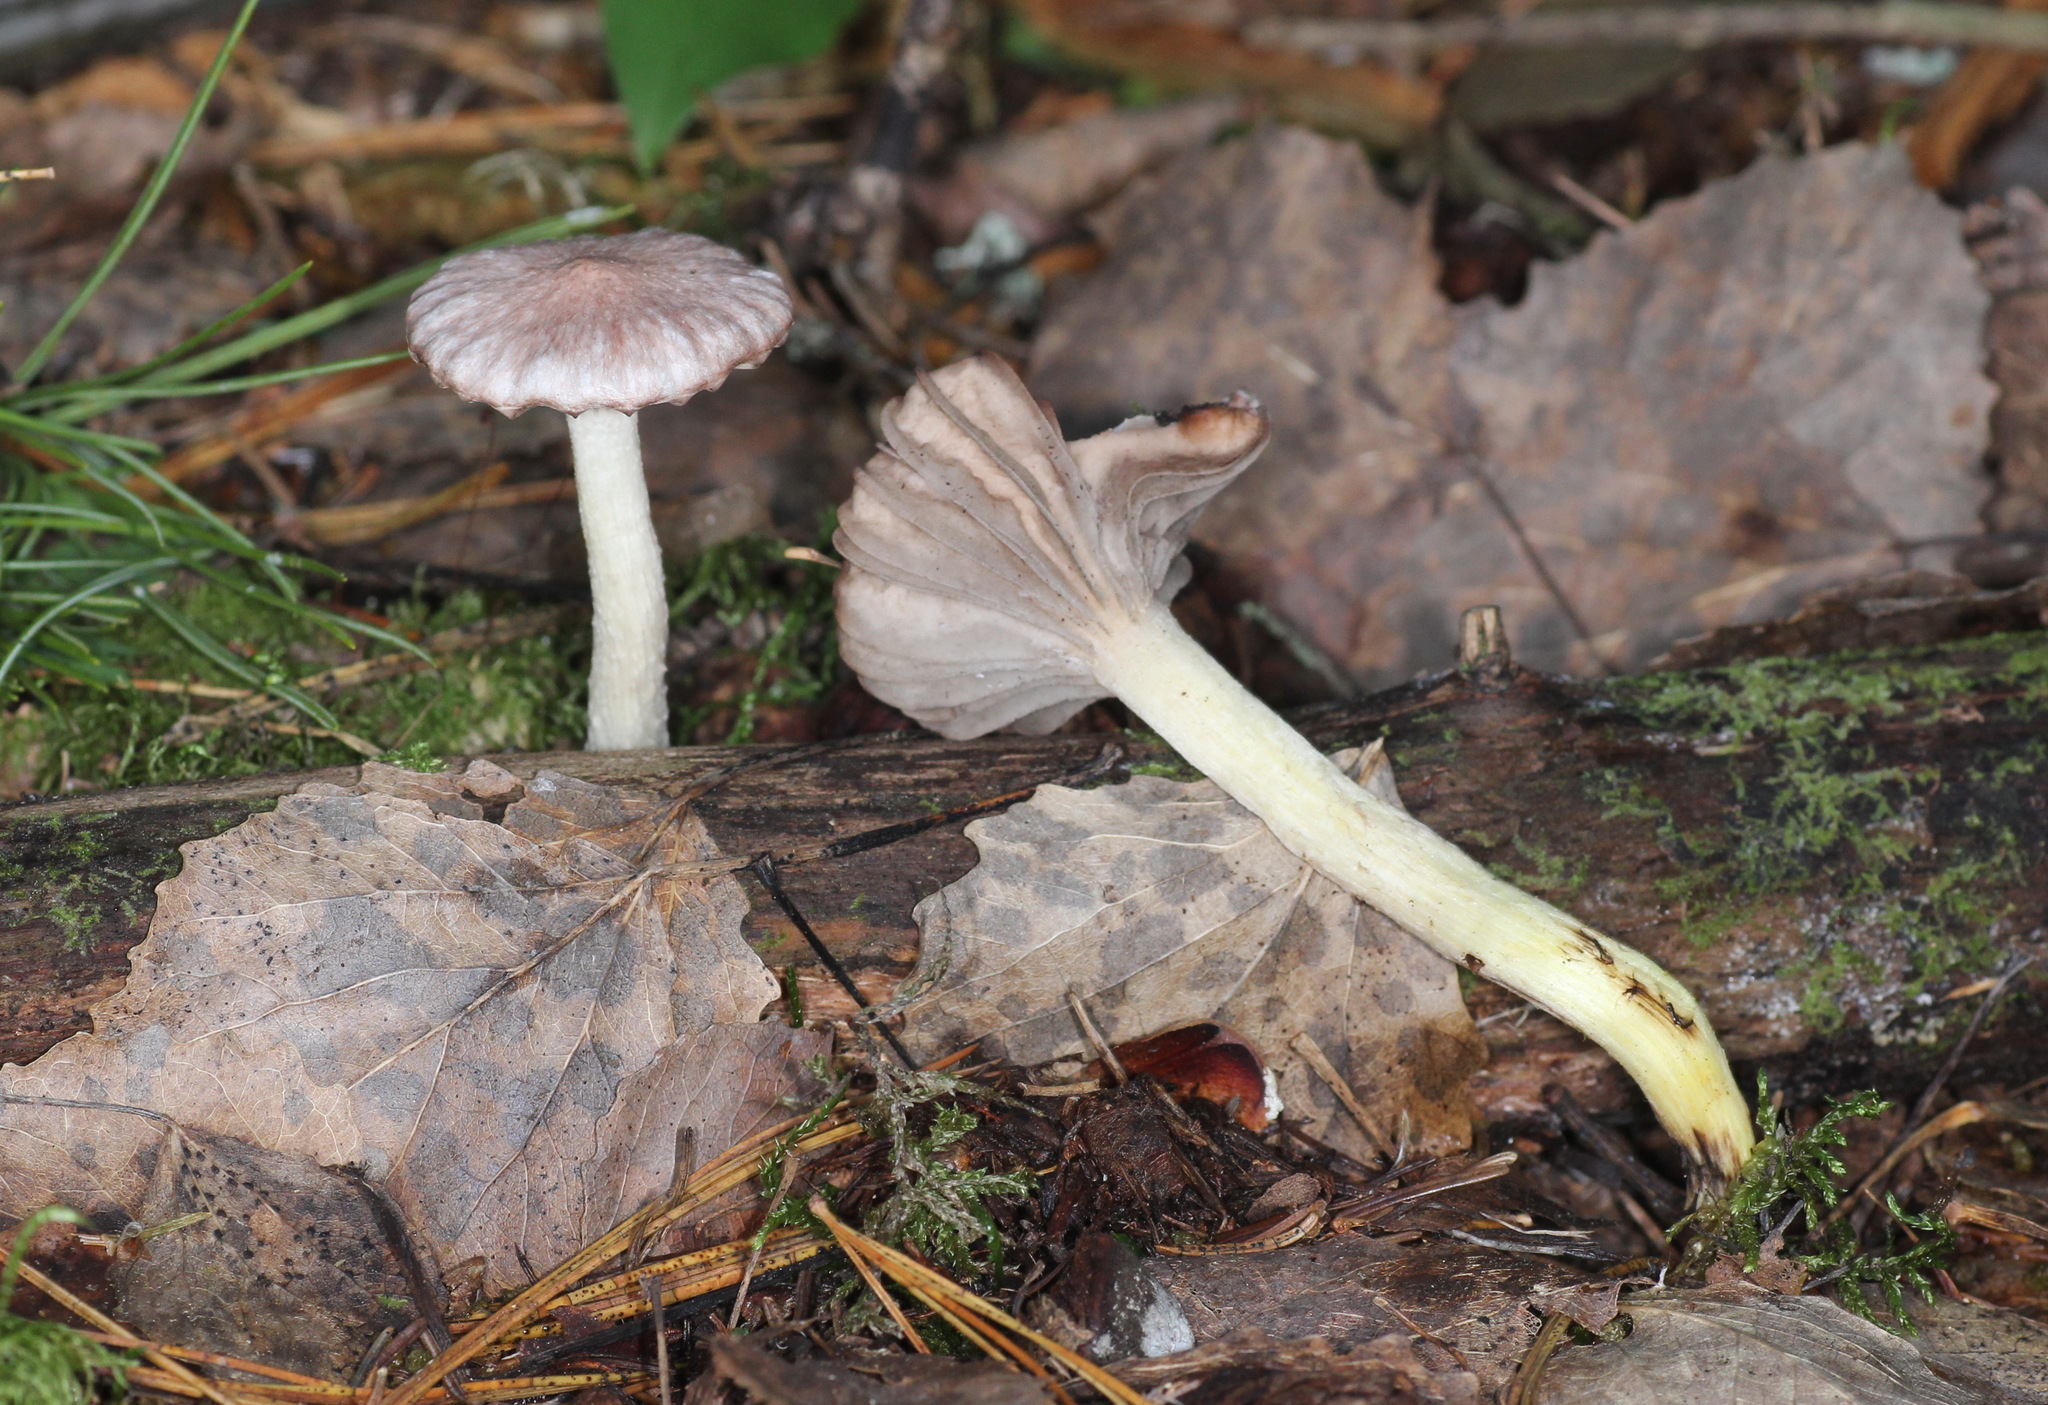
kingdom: Fungi
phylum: Basidiomycota
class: Agaricomycetes
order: Boletales
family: Gomphidiaceae
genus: Gomphidius
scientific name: Gomphidius flavipes
